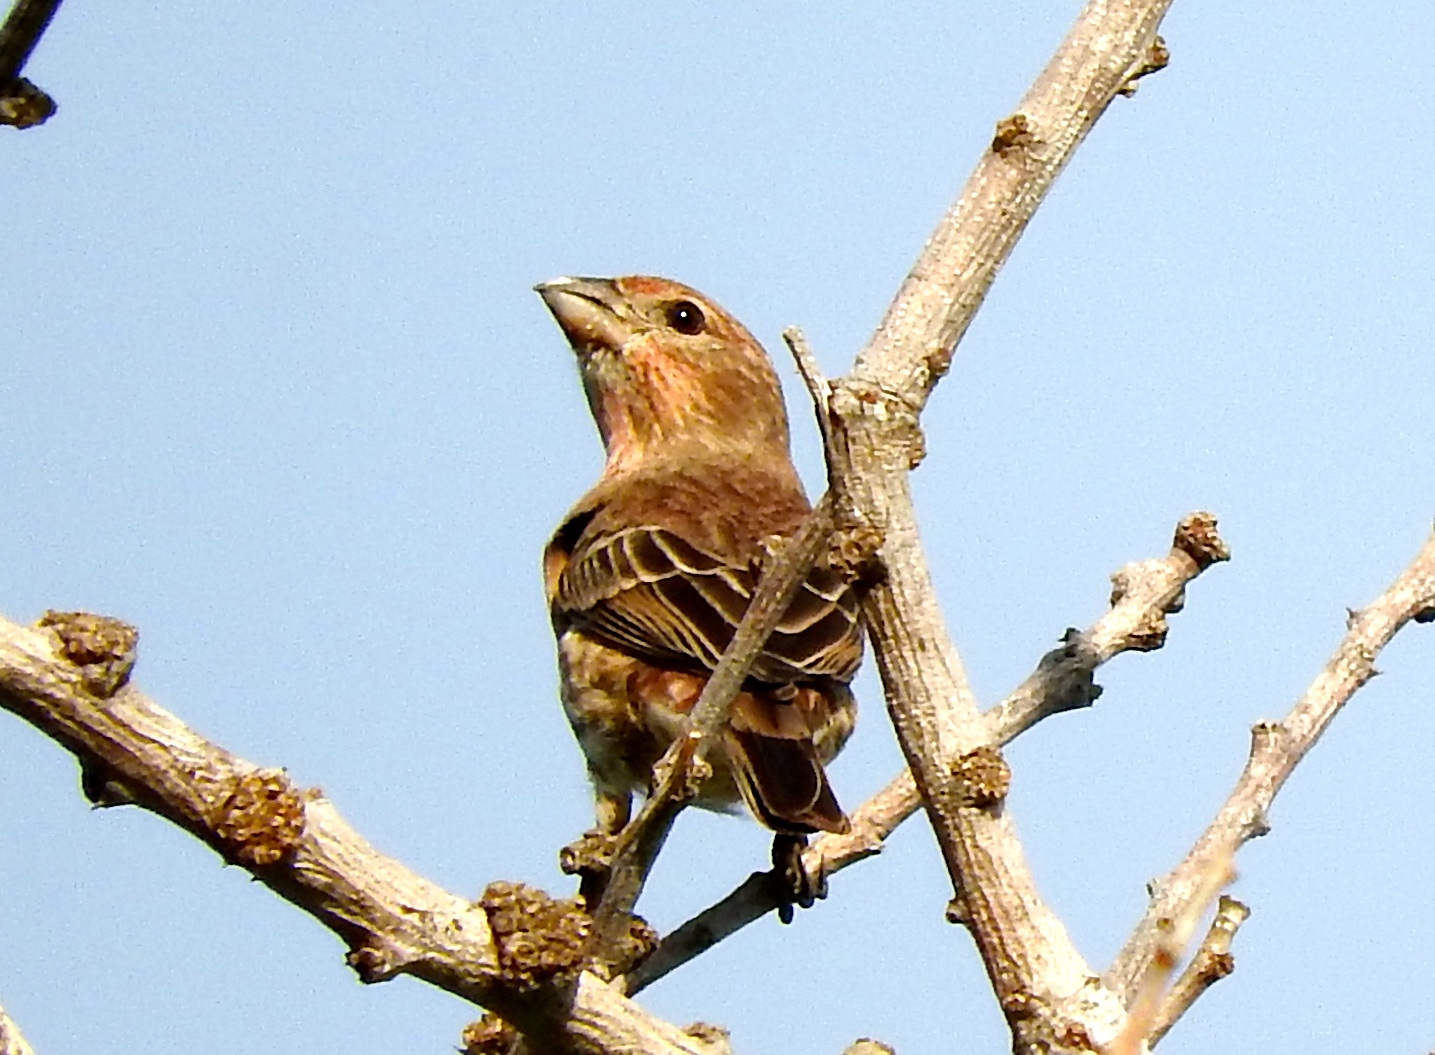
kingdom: Animalia
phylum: Chordata
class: Aves
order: Passeriformes
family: Fringillidae
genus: Haemorhous
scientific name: Haemorhous mexicanus
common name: House finch
